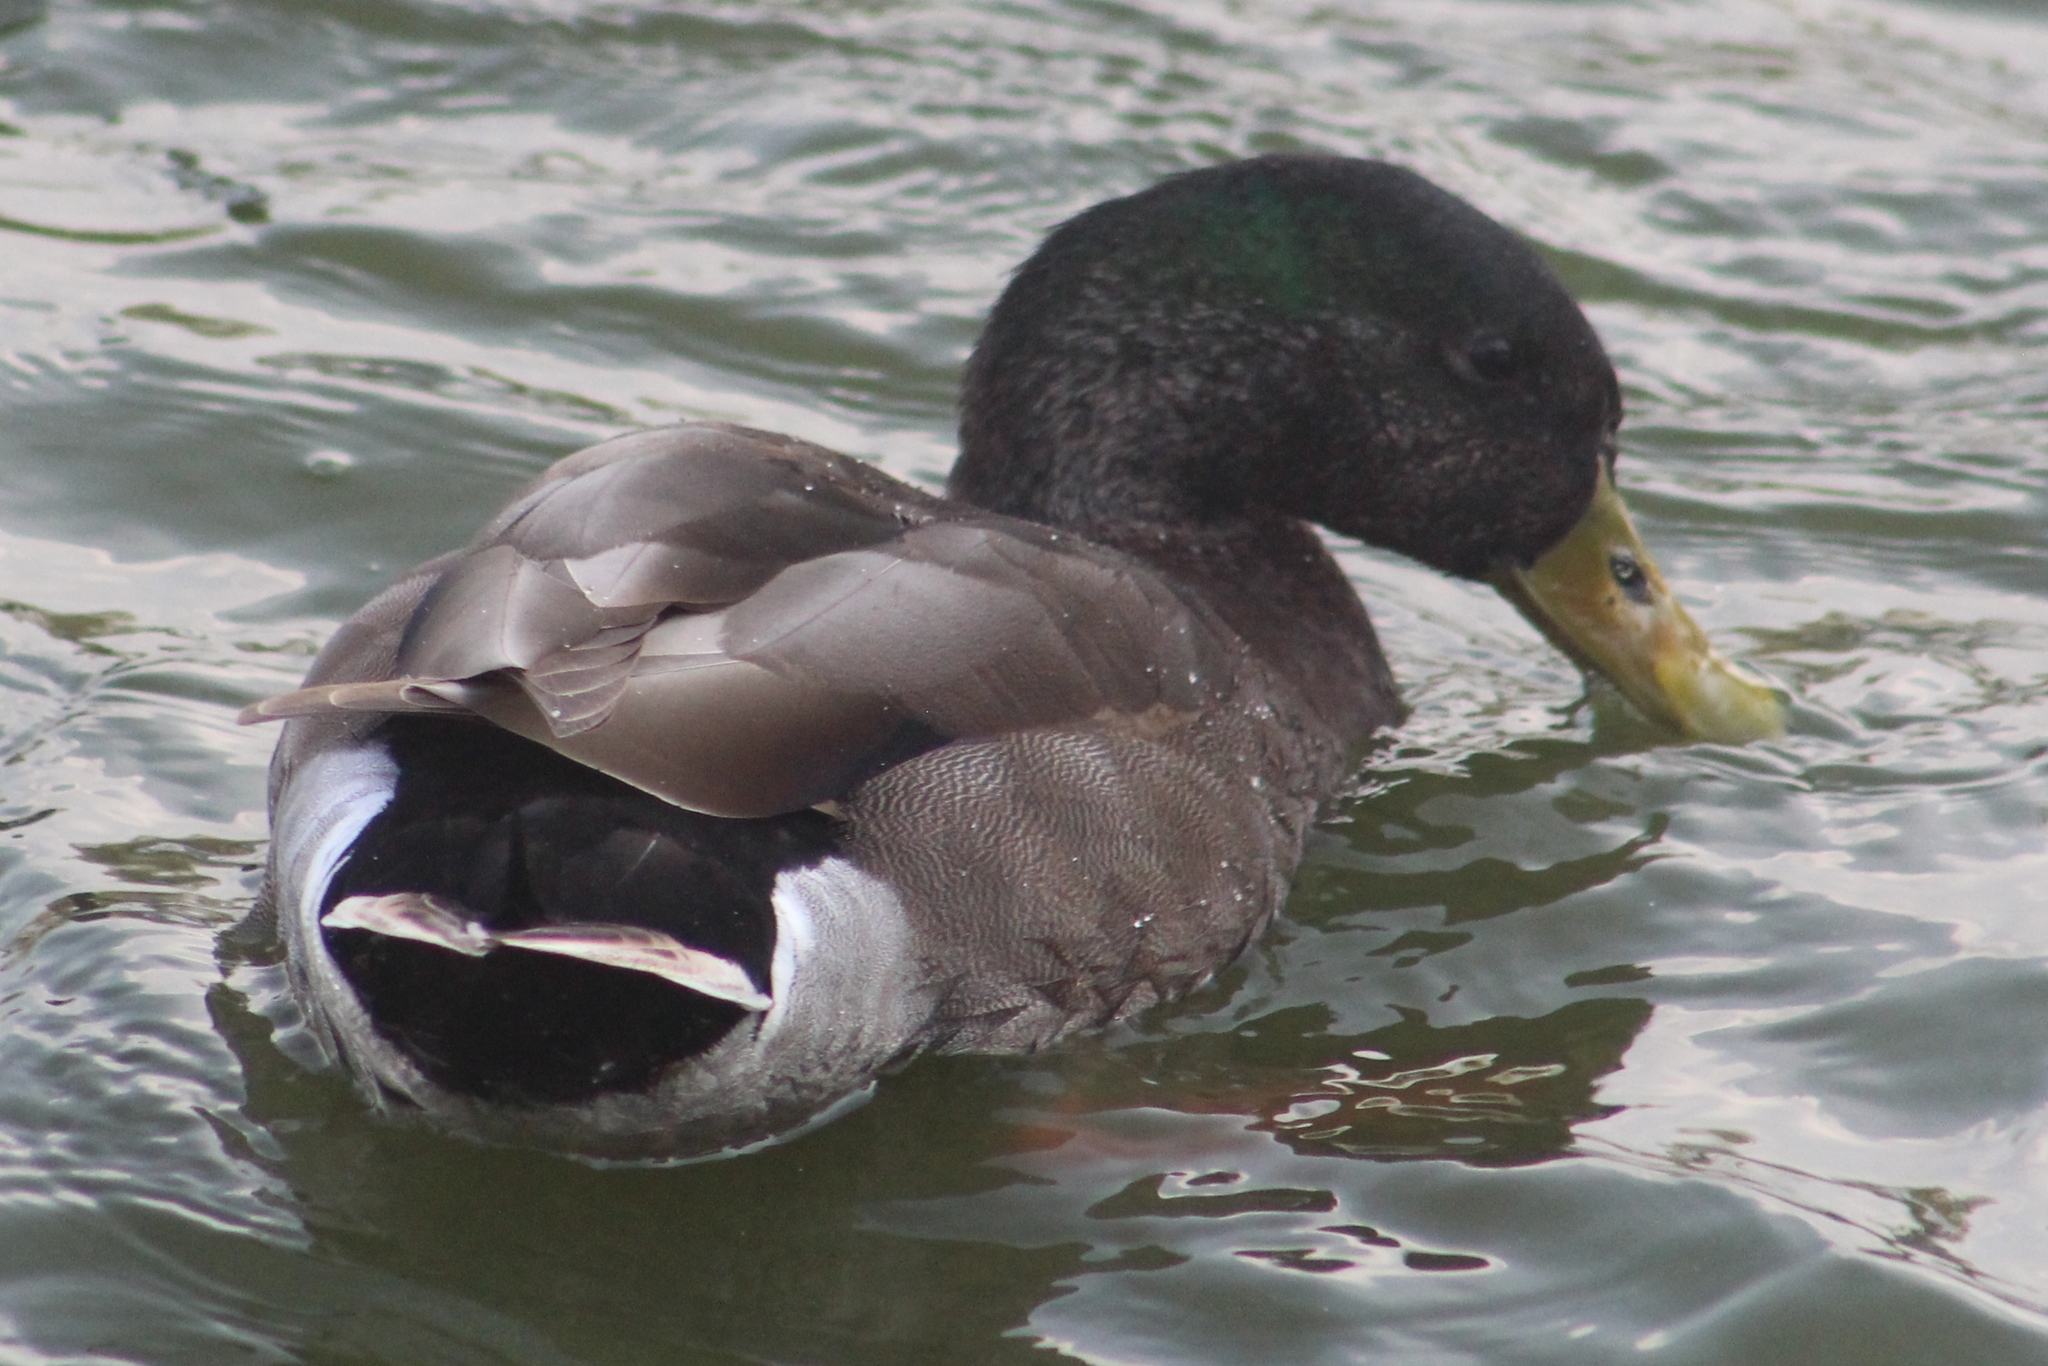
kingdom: Animalia
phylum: Chordata
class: Aves
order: Anseriformes
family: Anatidae
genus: Anas
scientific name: Anas platyrhynchos
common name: Mallard
